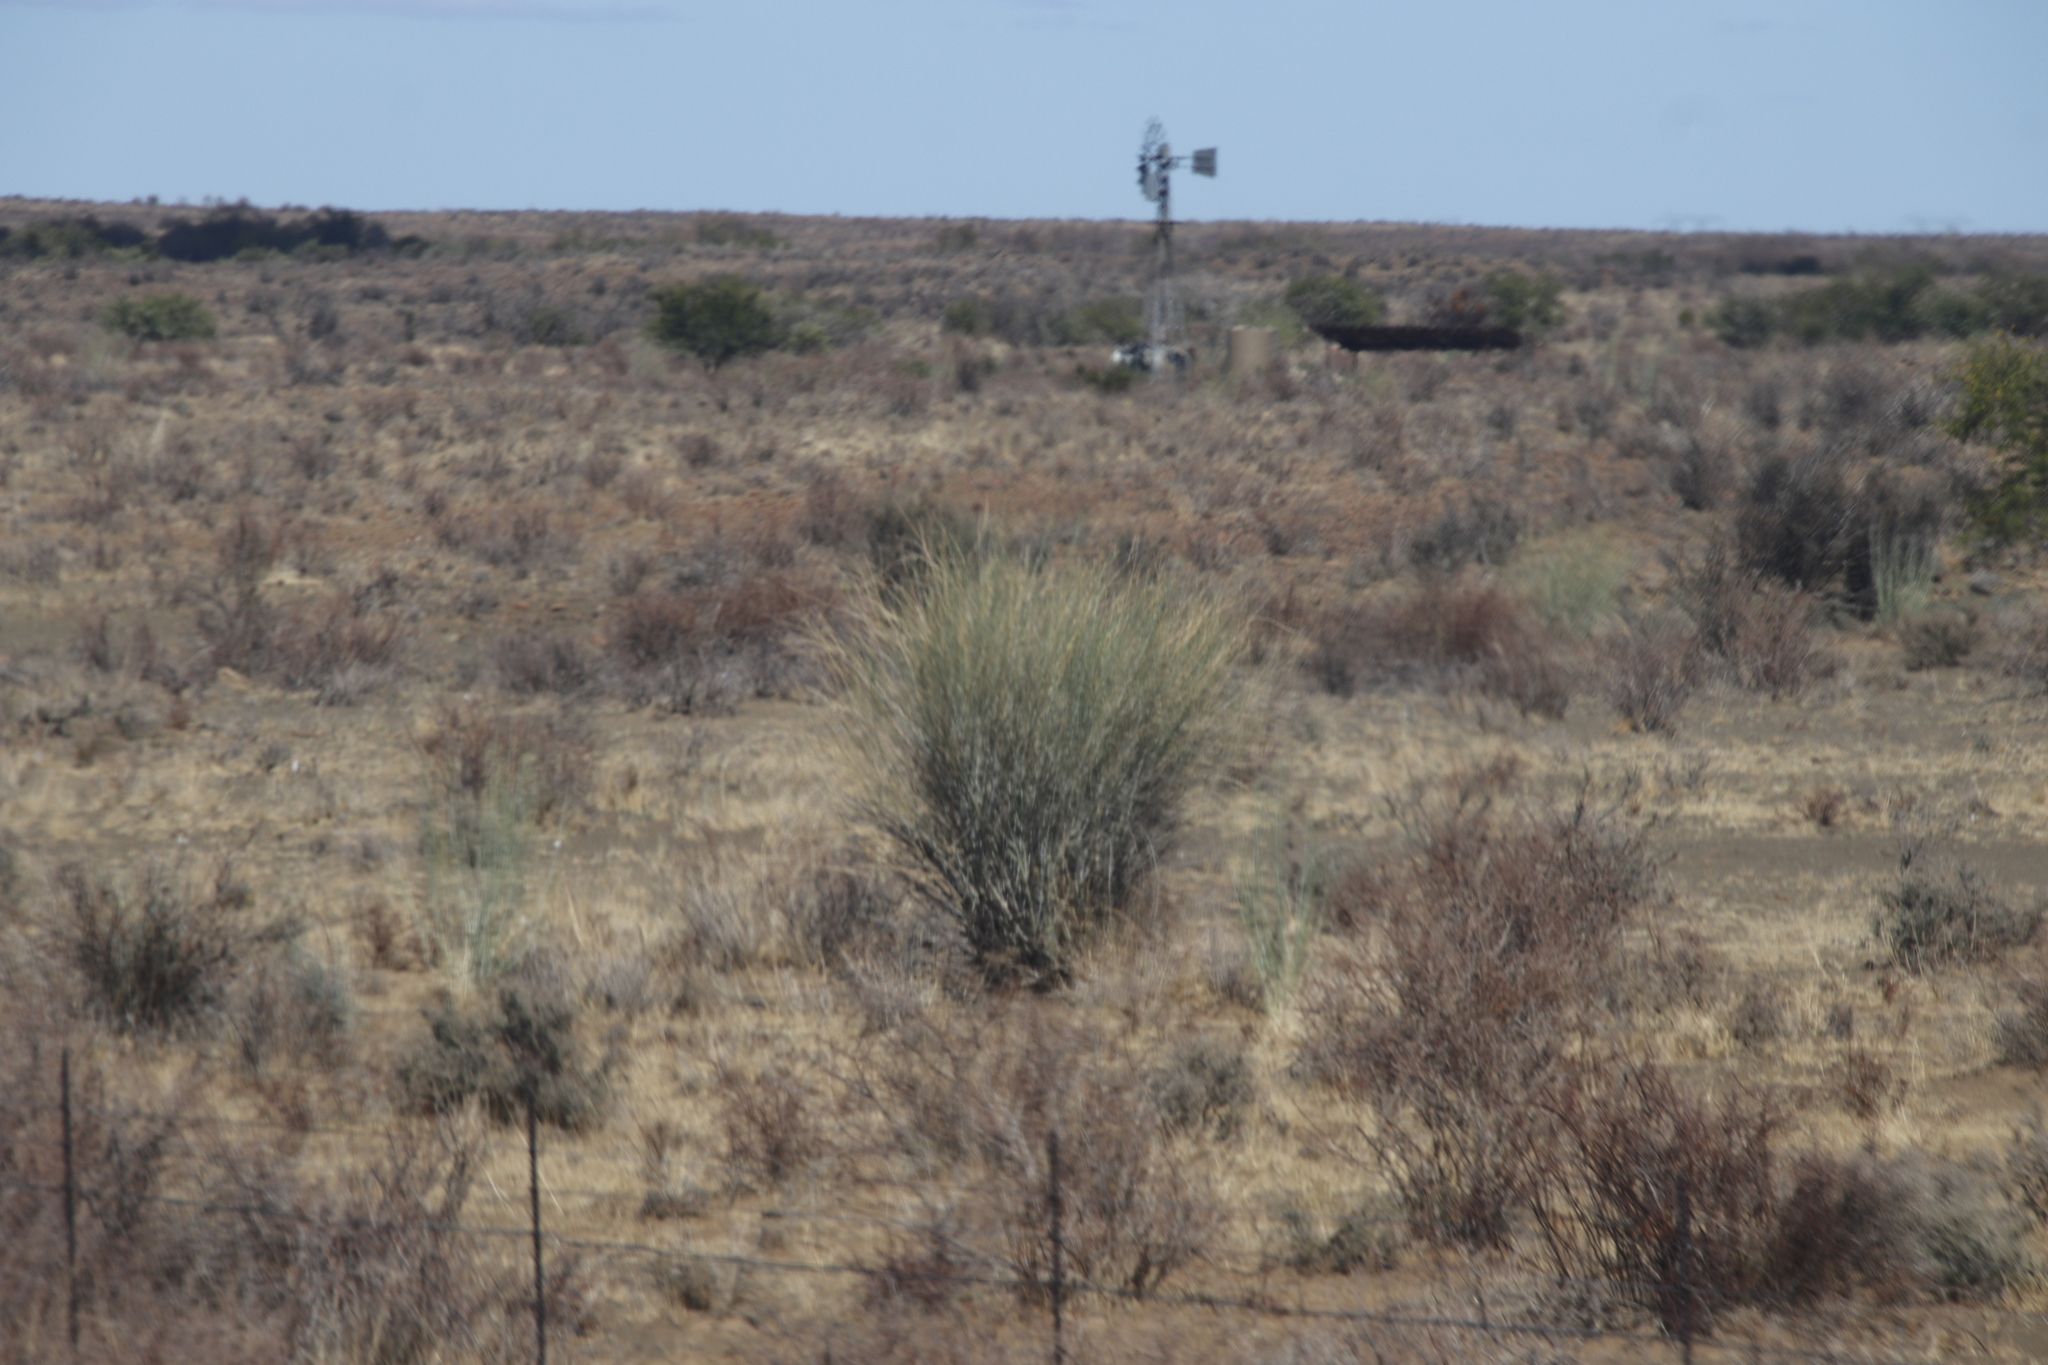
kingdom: Plantae
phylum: Tracheophyta
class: Magnoliopsida
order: Gentianales
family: Apocynaceae
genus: Gomphocarpus
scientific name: Gomphocarpus filiformis
